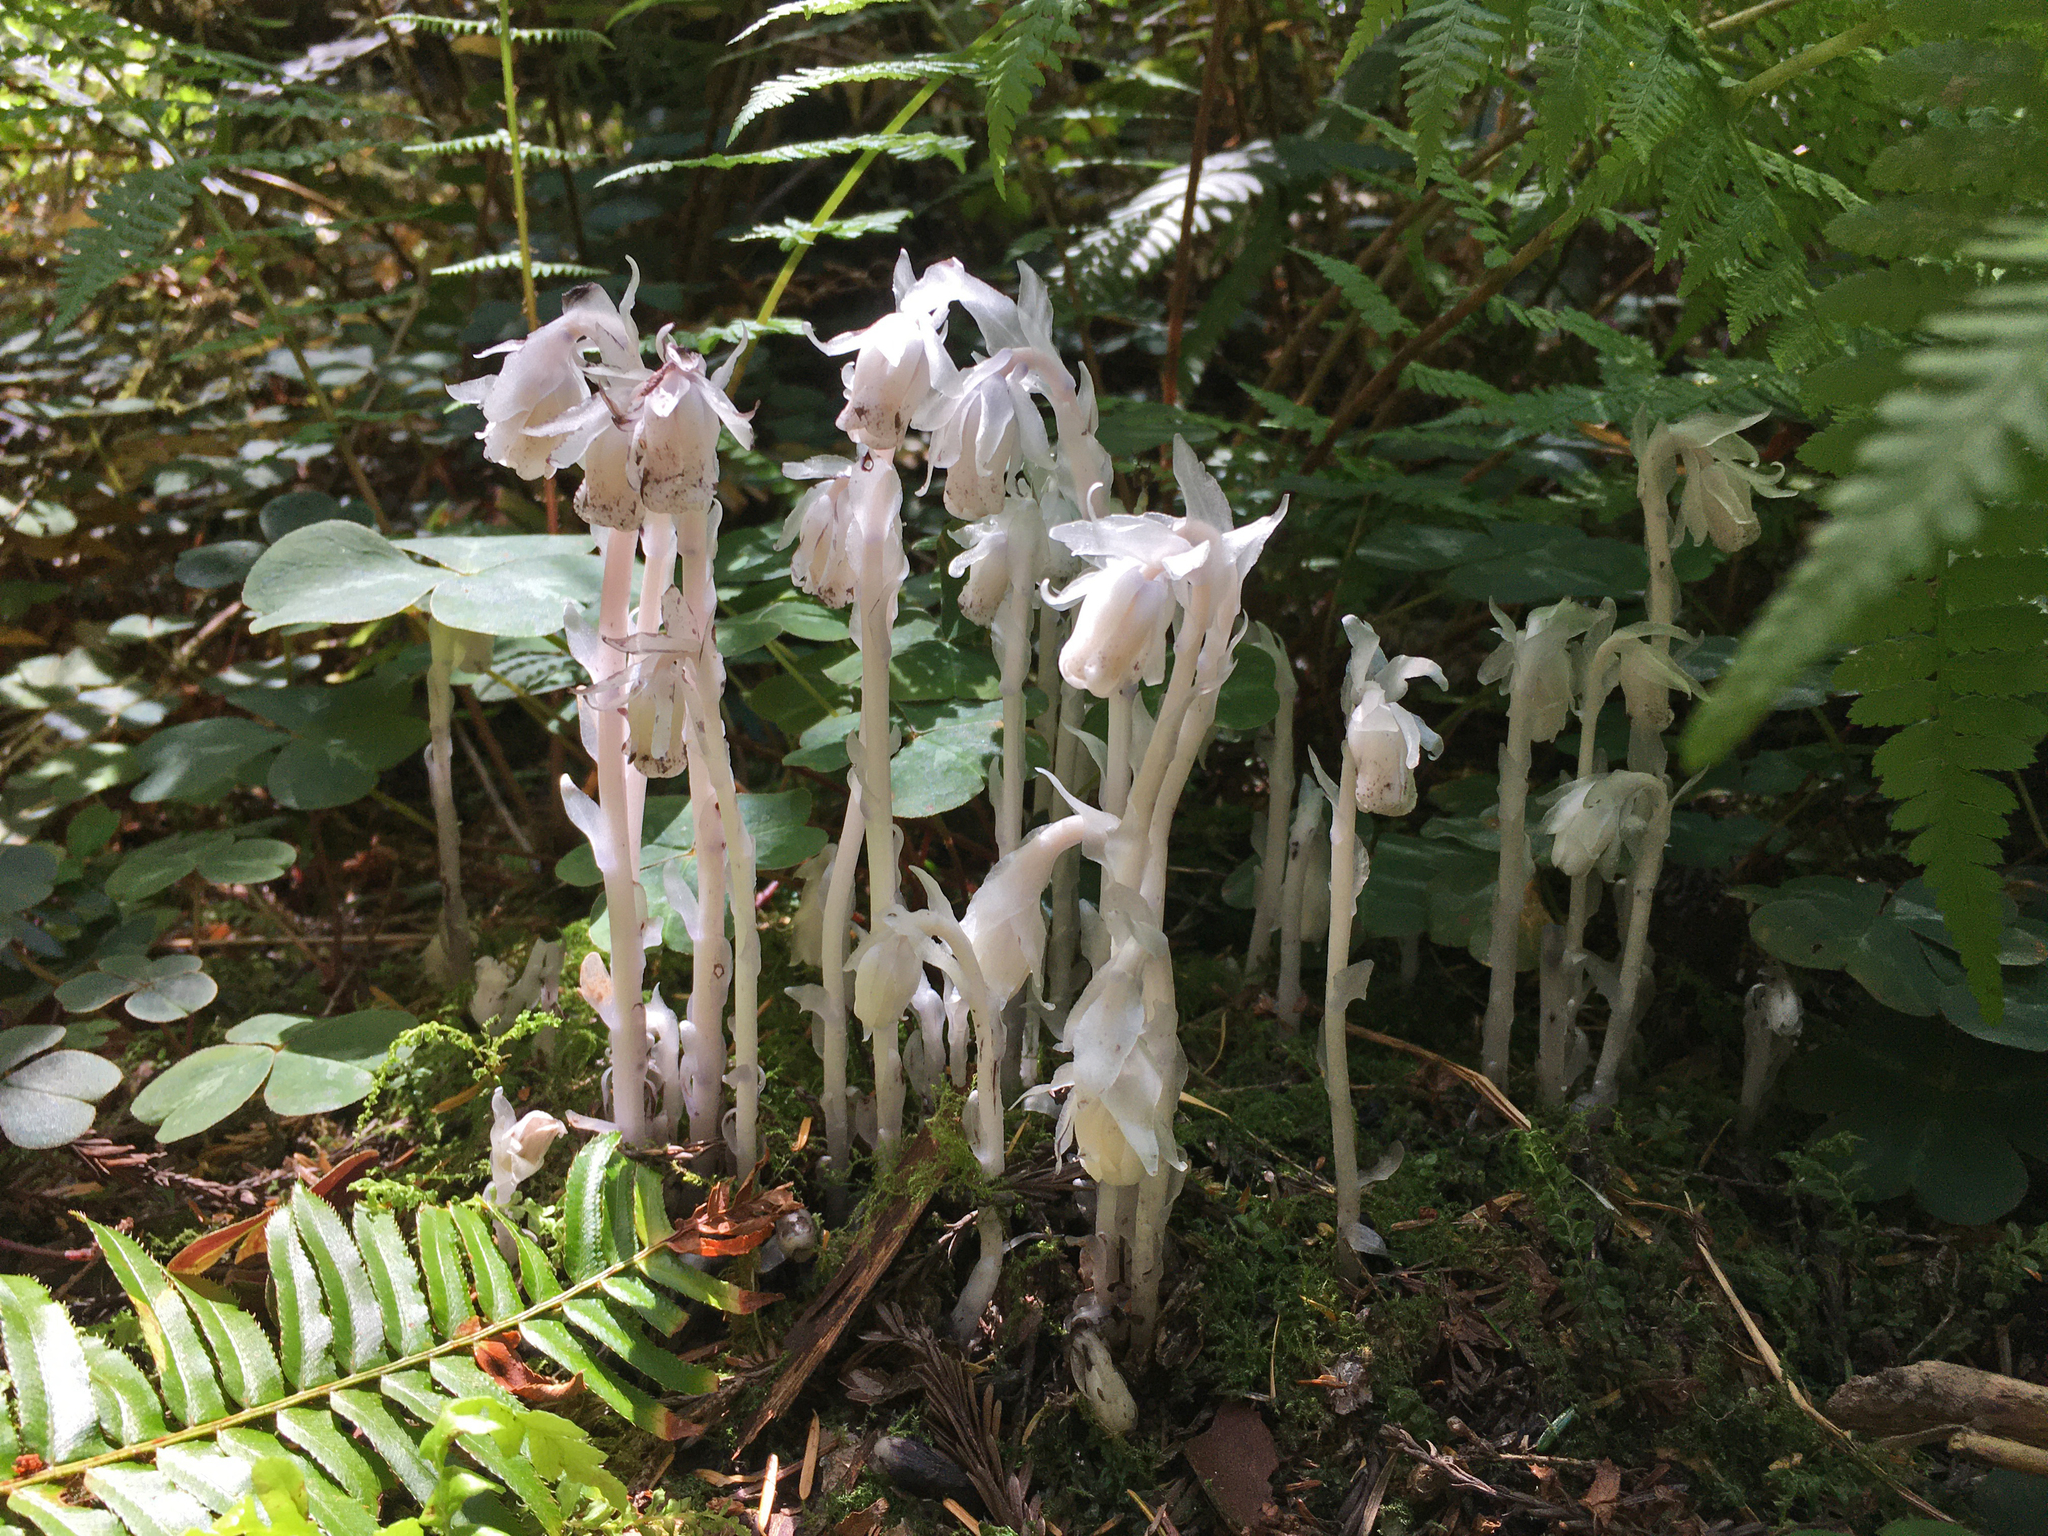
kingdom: Plantae
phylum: Tracheophyta
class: Magnoliopsida
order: Ericales
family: Ericaceae
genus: Monotropa
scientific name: Monotropa uniflora
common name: Convulsion root
